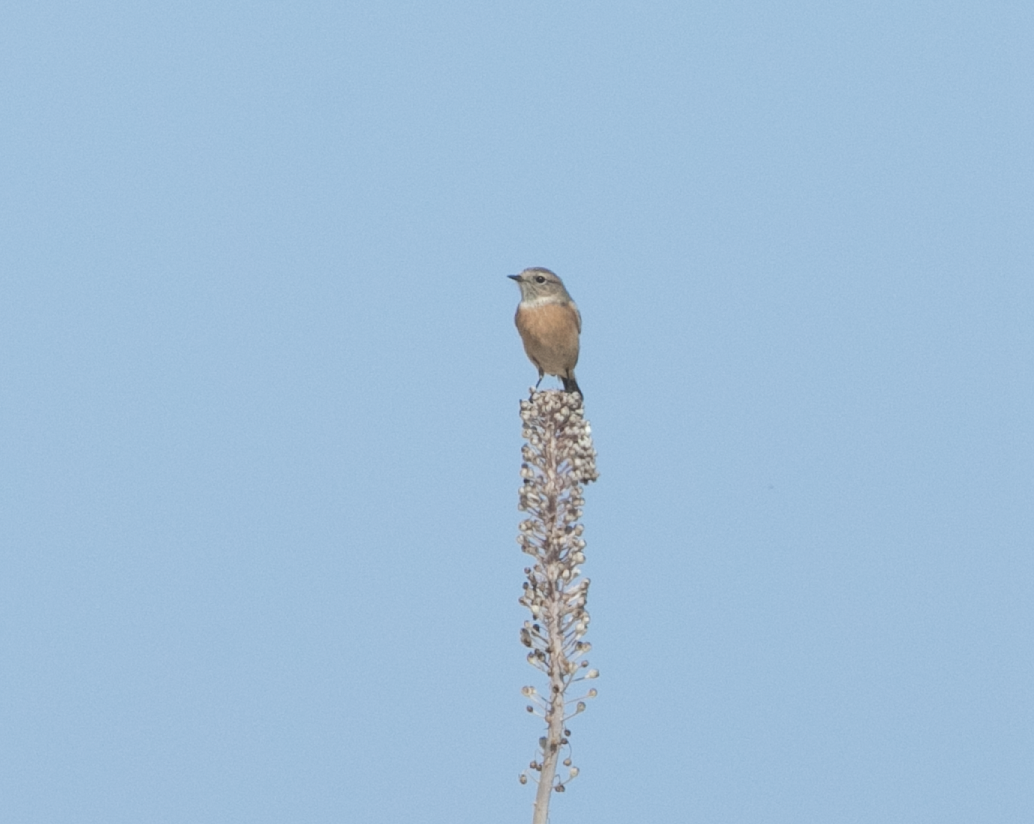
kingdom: Animalia
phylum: Chordata
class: Aves
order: Passeriformes
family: Muscicapidae
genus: Saxicola
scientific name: Saxicola rubicola
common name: European stonechat
